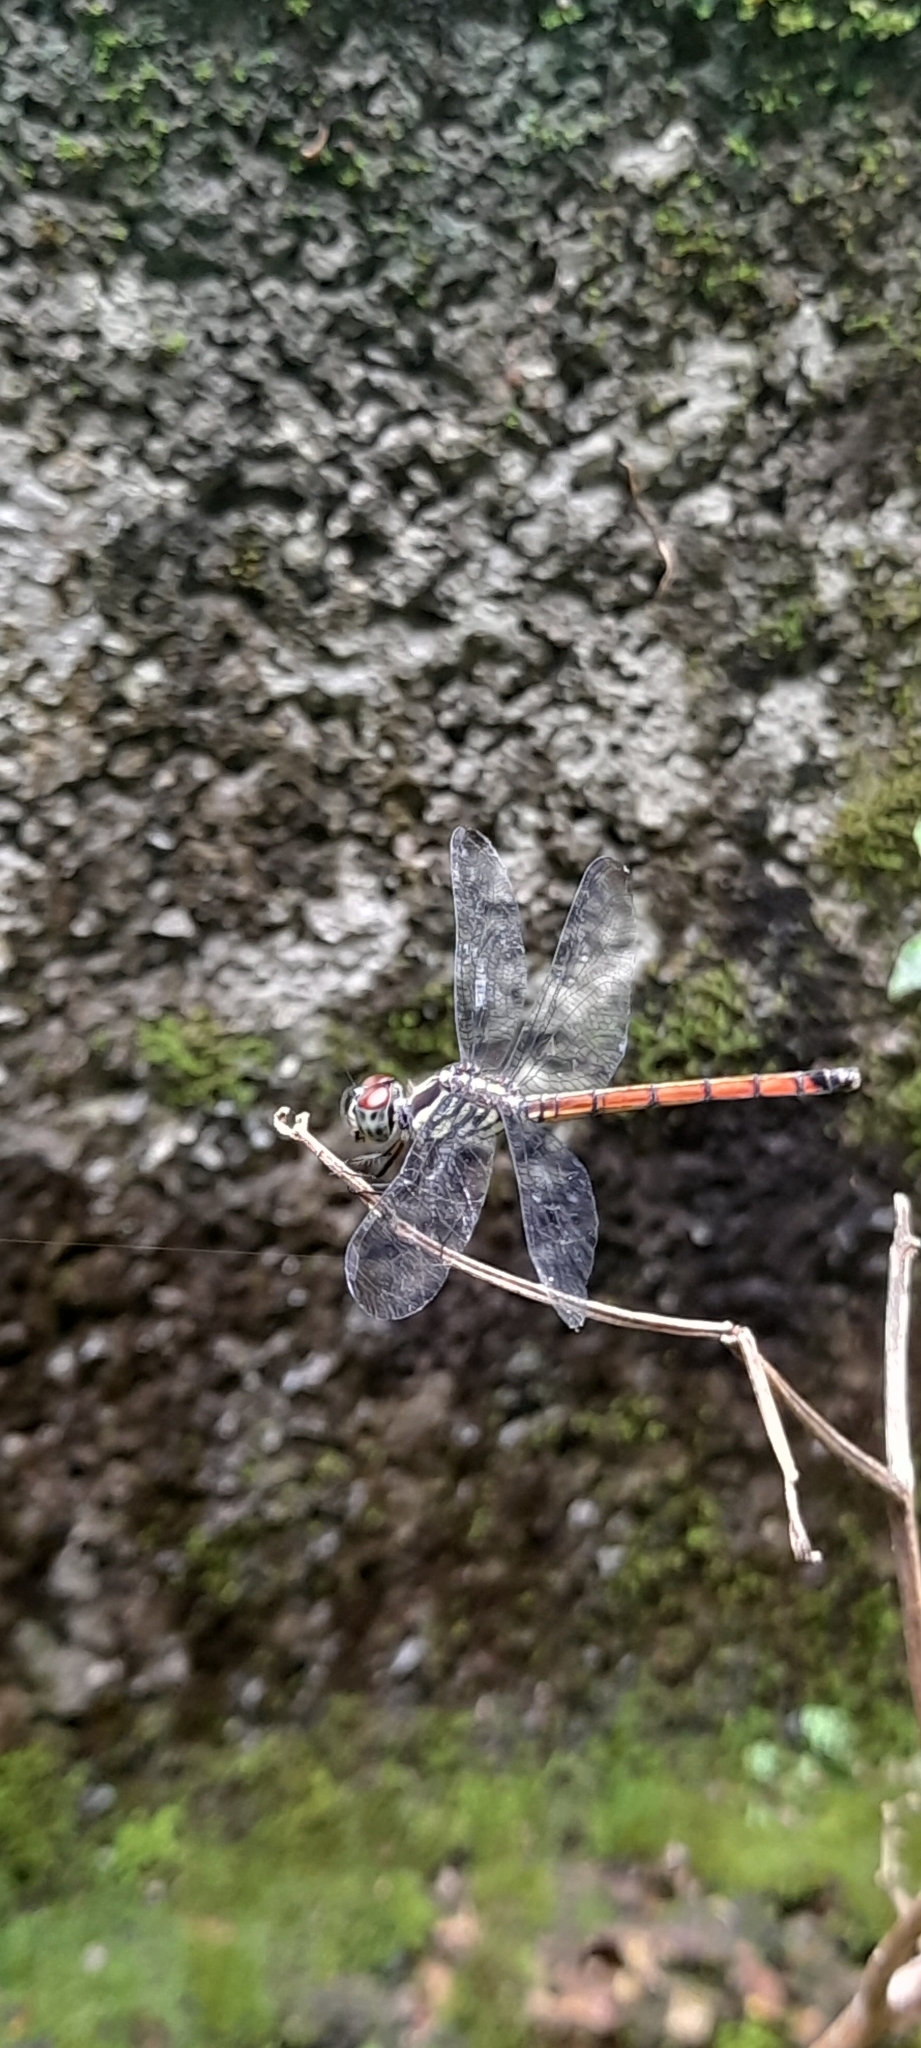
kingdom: Animalia
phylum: Arthropoda
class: Insecta
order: Odonata
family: Libellulidae
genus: Lathrecista
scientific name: Lathrecista asiatica
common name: Scarlet grenadier
